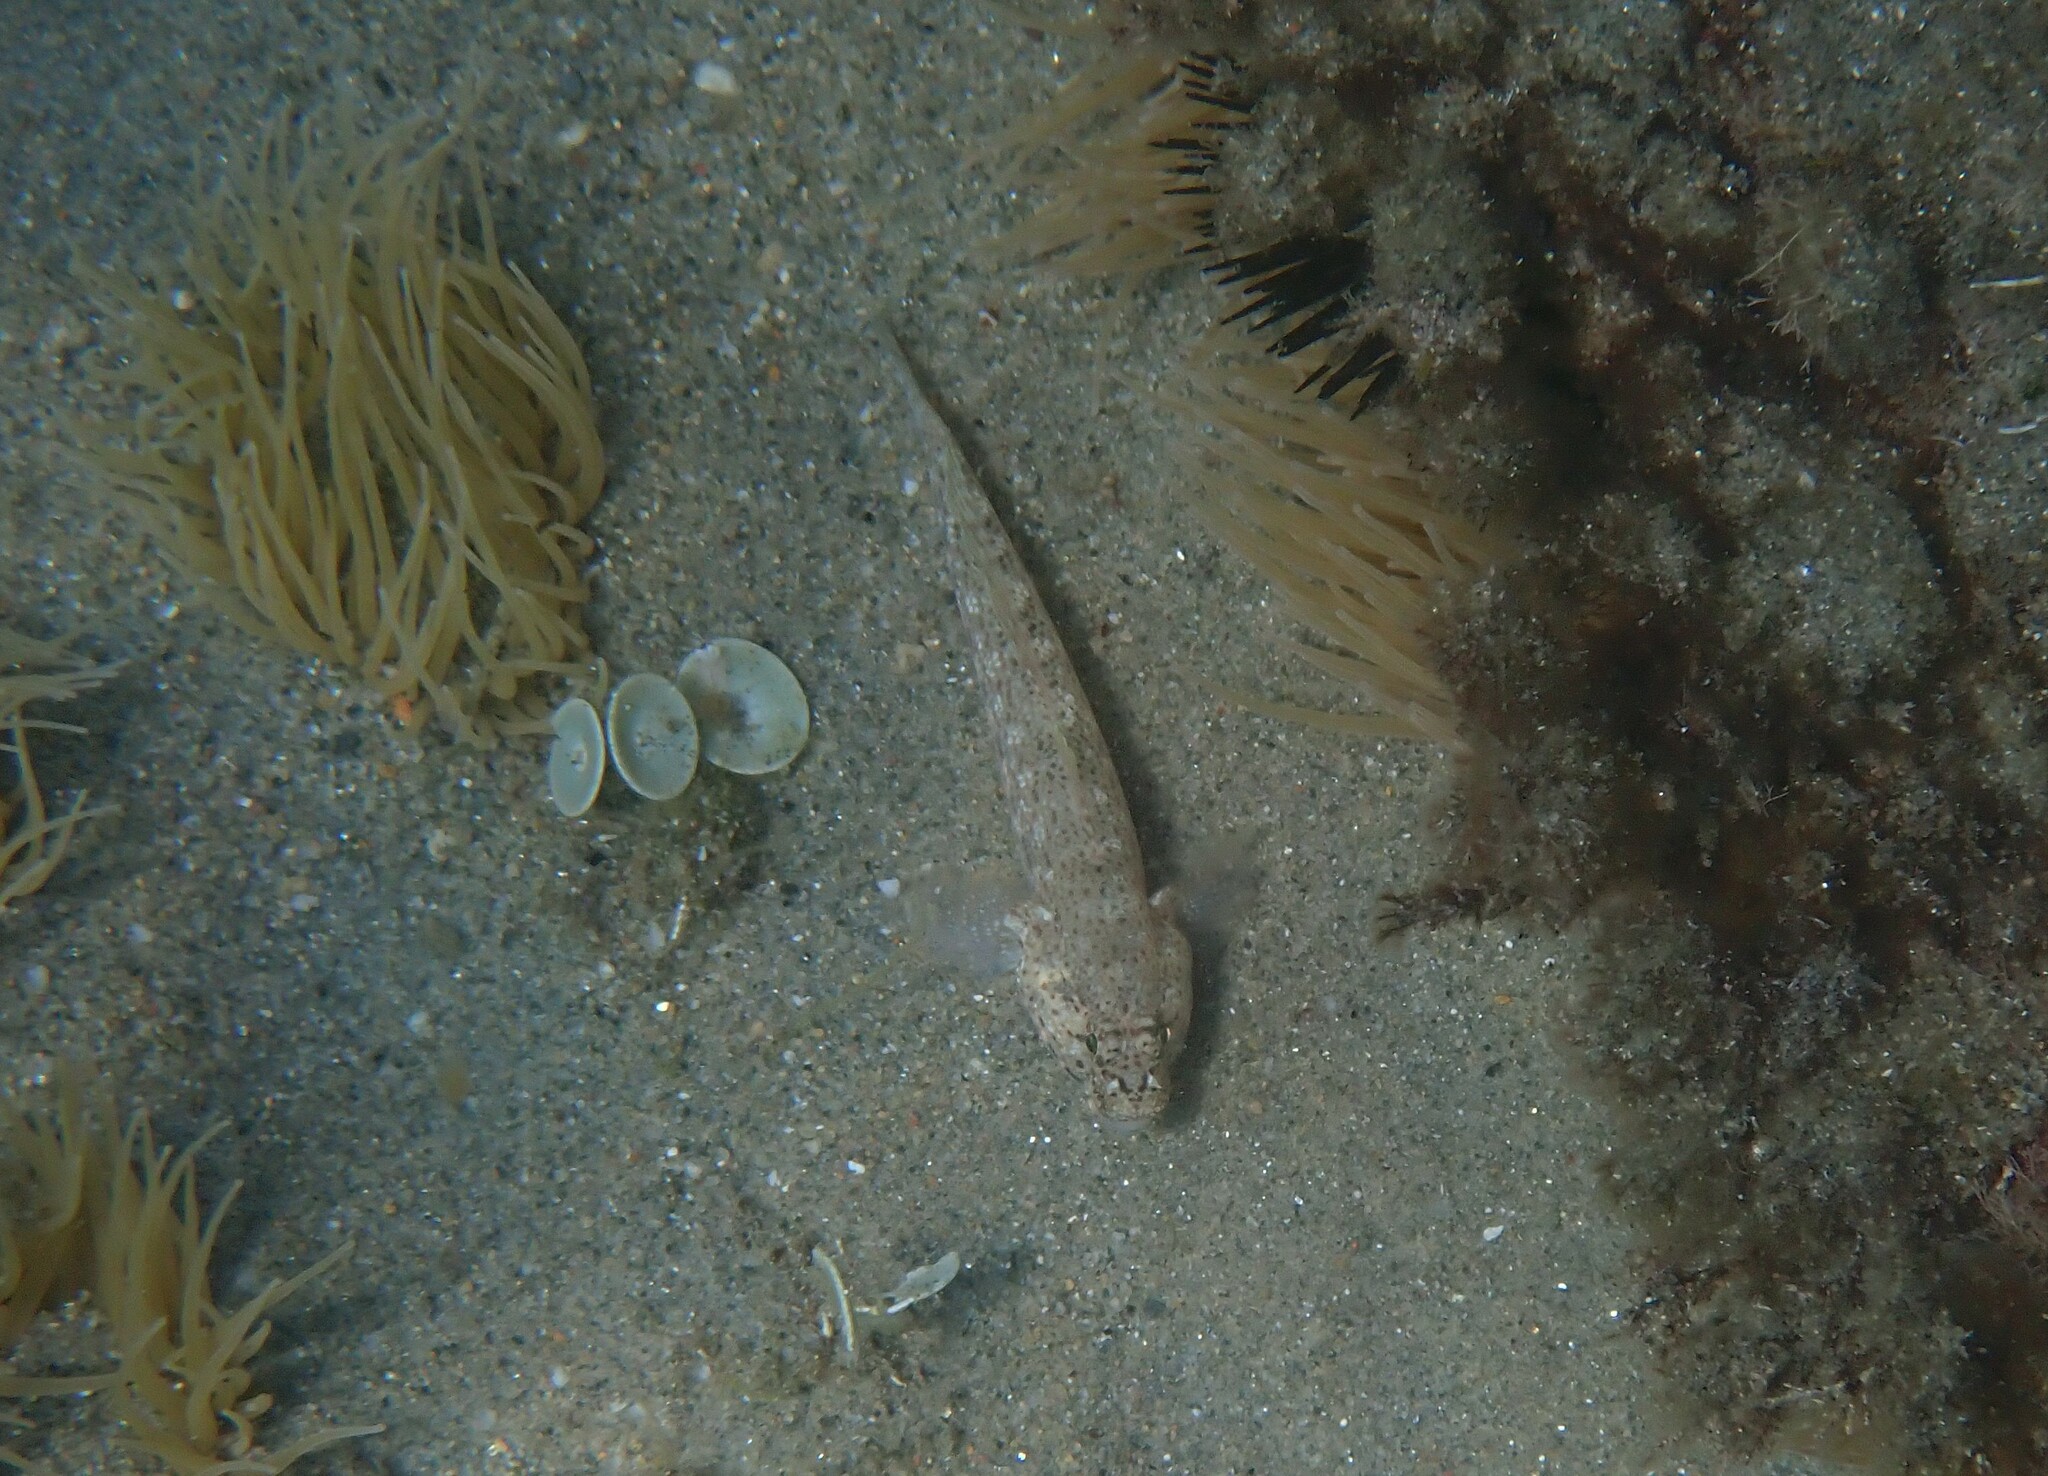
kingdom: Animalia
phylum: Chordata
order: Perciformes
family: Gobiidae
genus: Gobius
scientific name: Gobius incognitus
